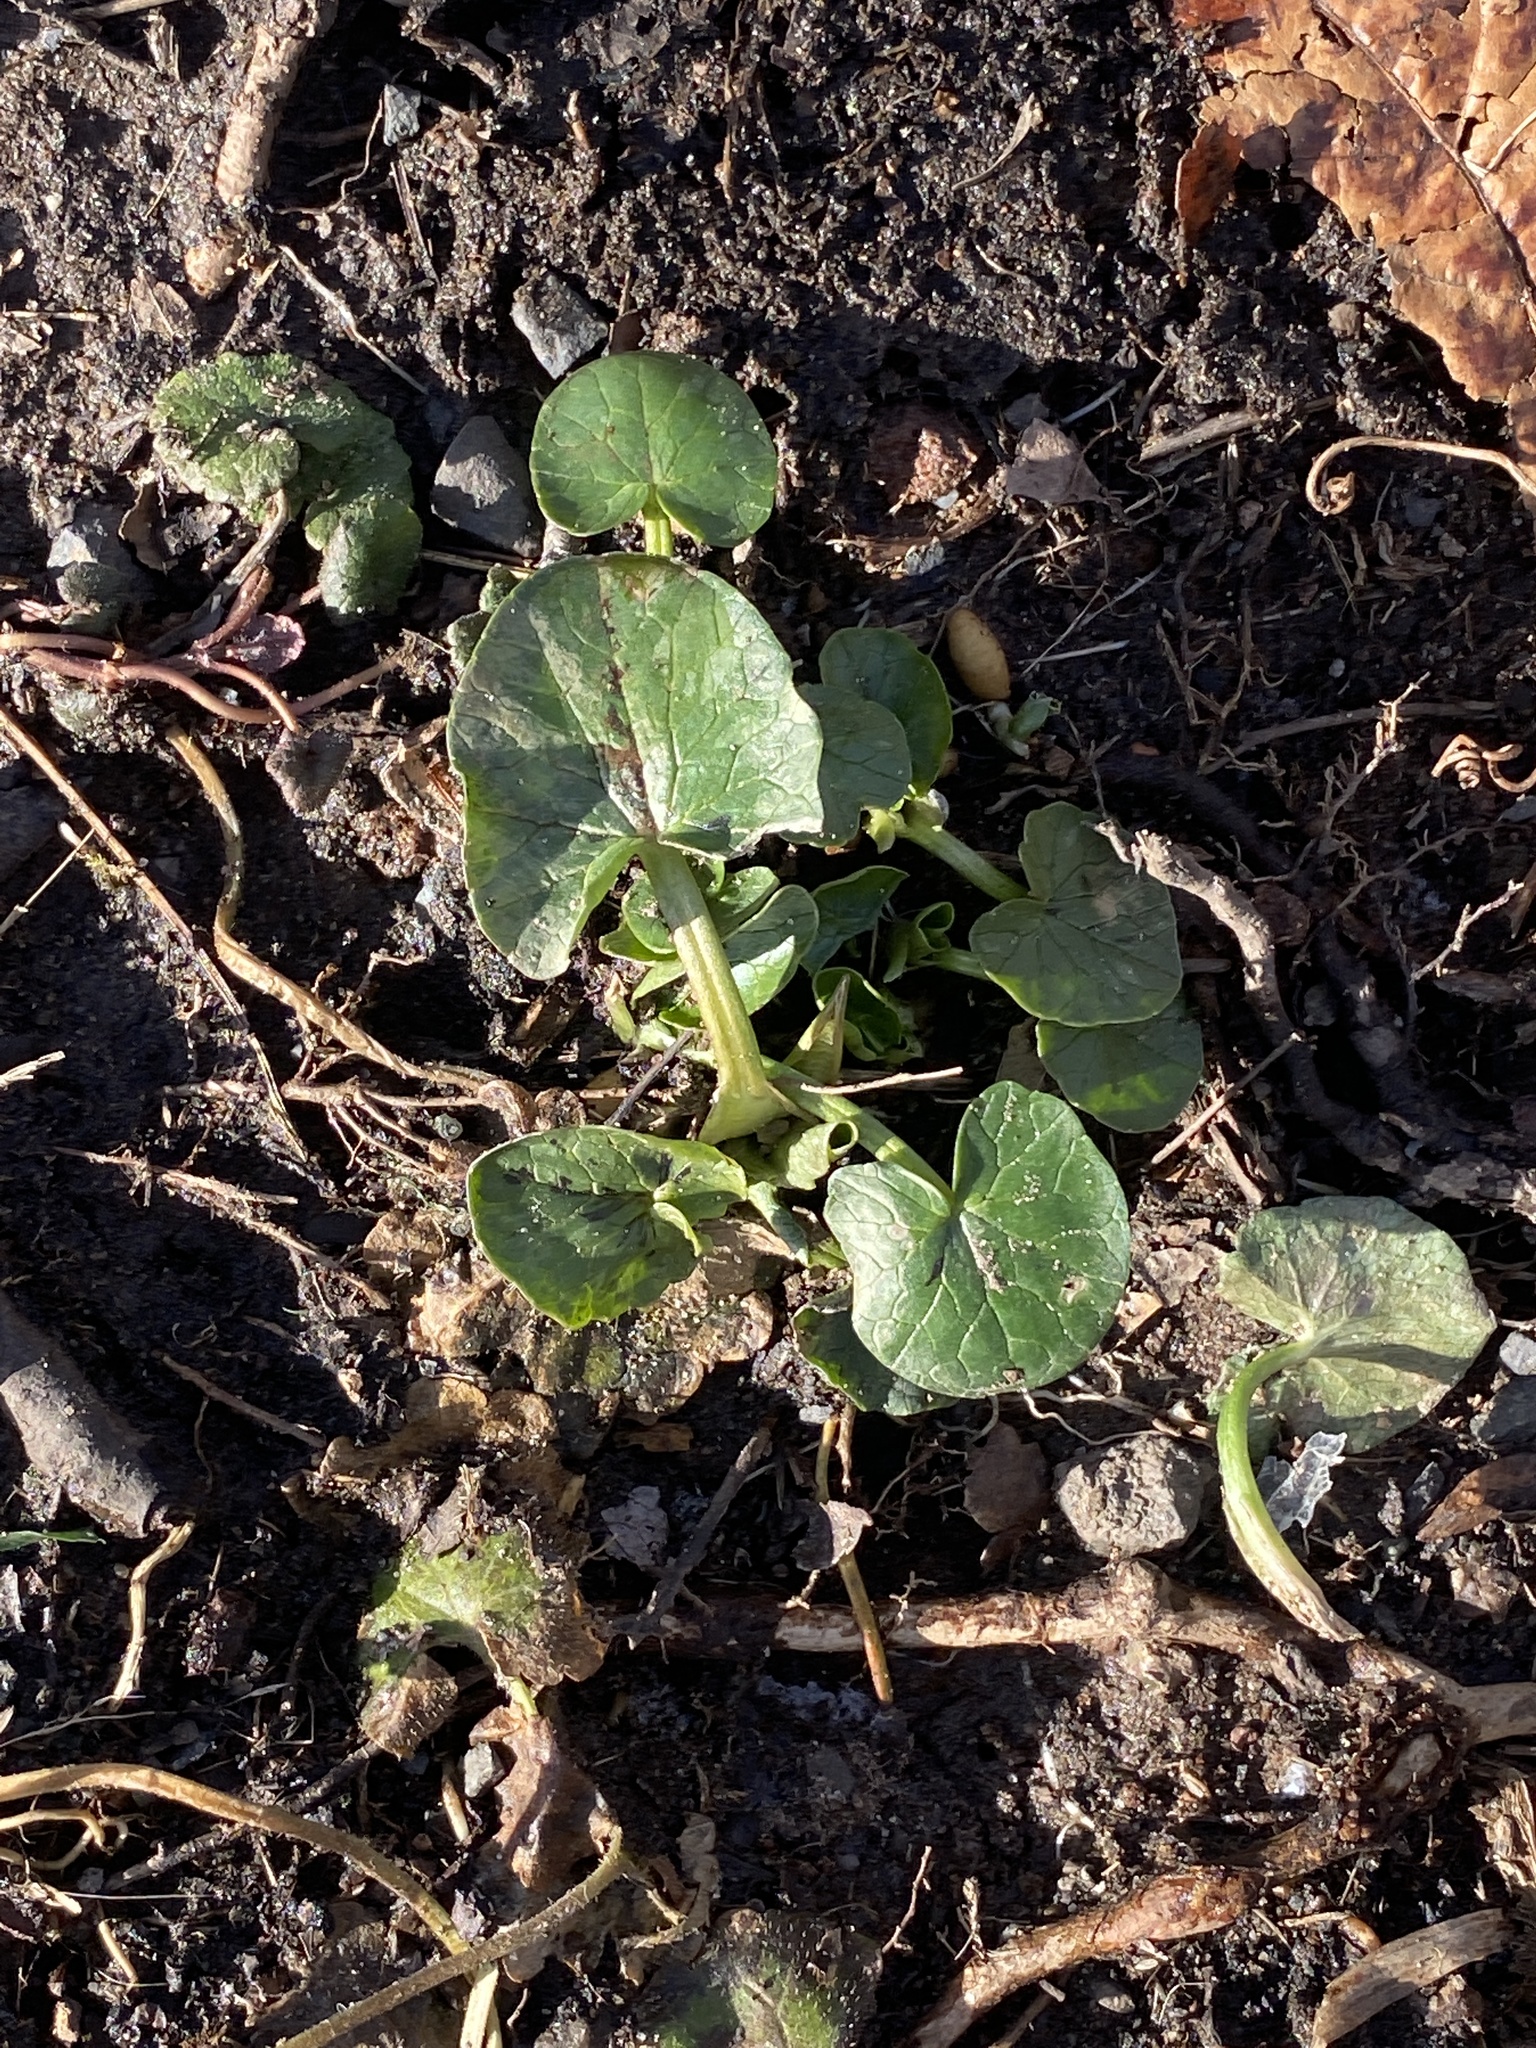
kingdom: Plantae
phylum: Tracheophyta
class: Magnoliopsida
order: Ranunculales
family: Ranunculaceae
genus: Ficaria
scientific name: Ficaria verna
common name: Lesser celandine
